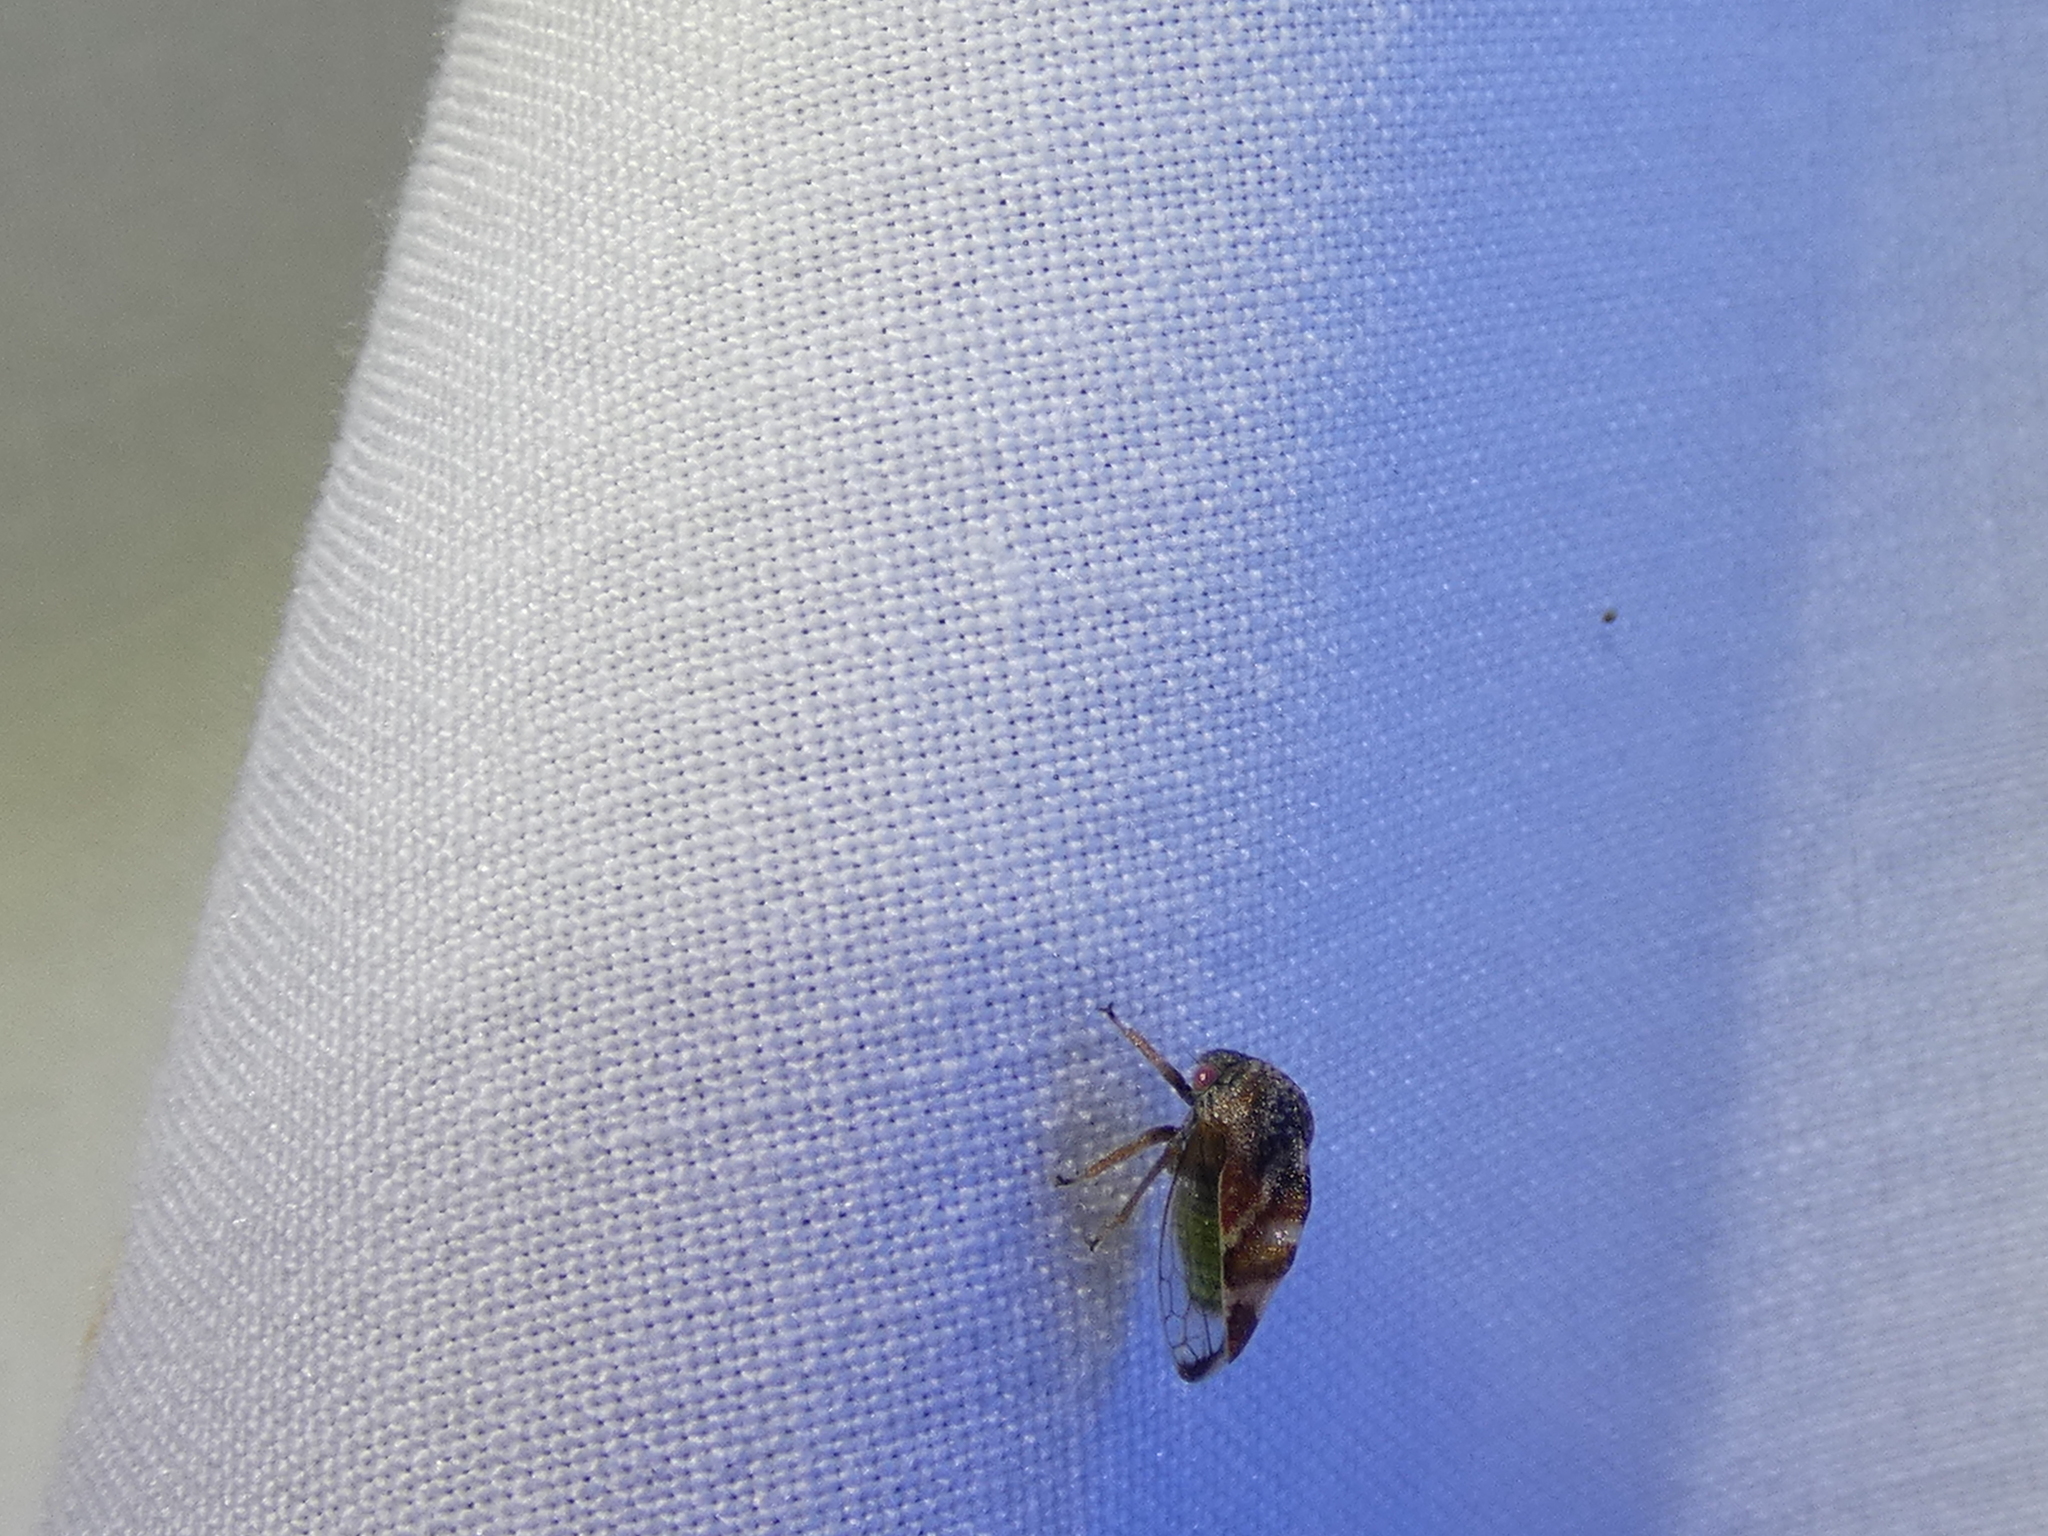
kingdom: Animalia
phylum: Arthropoda
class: Insecta
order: Hemiptera
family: Membracidae
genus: Cyrtolobus
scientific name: Cyrtolobus fenestrata
